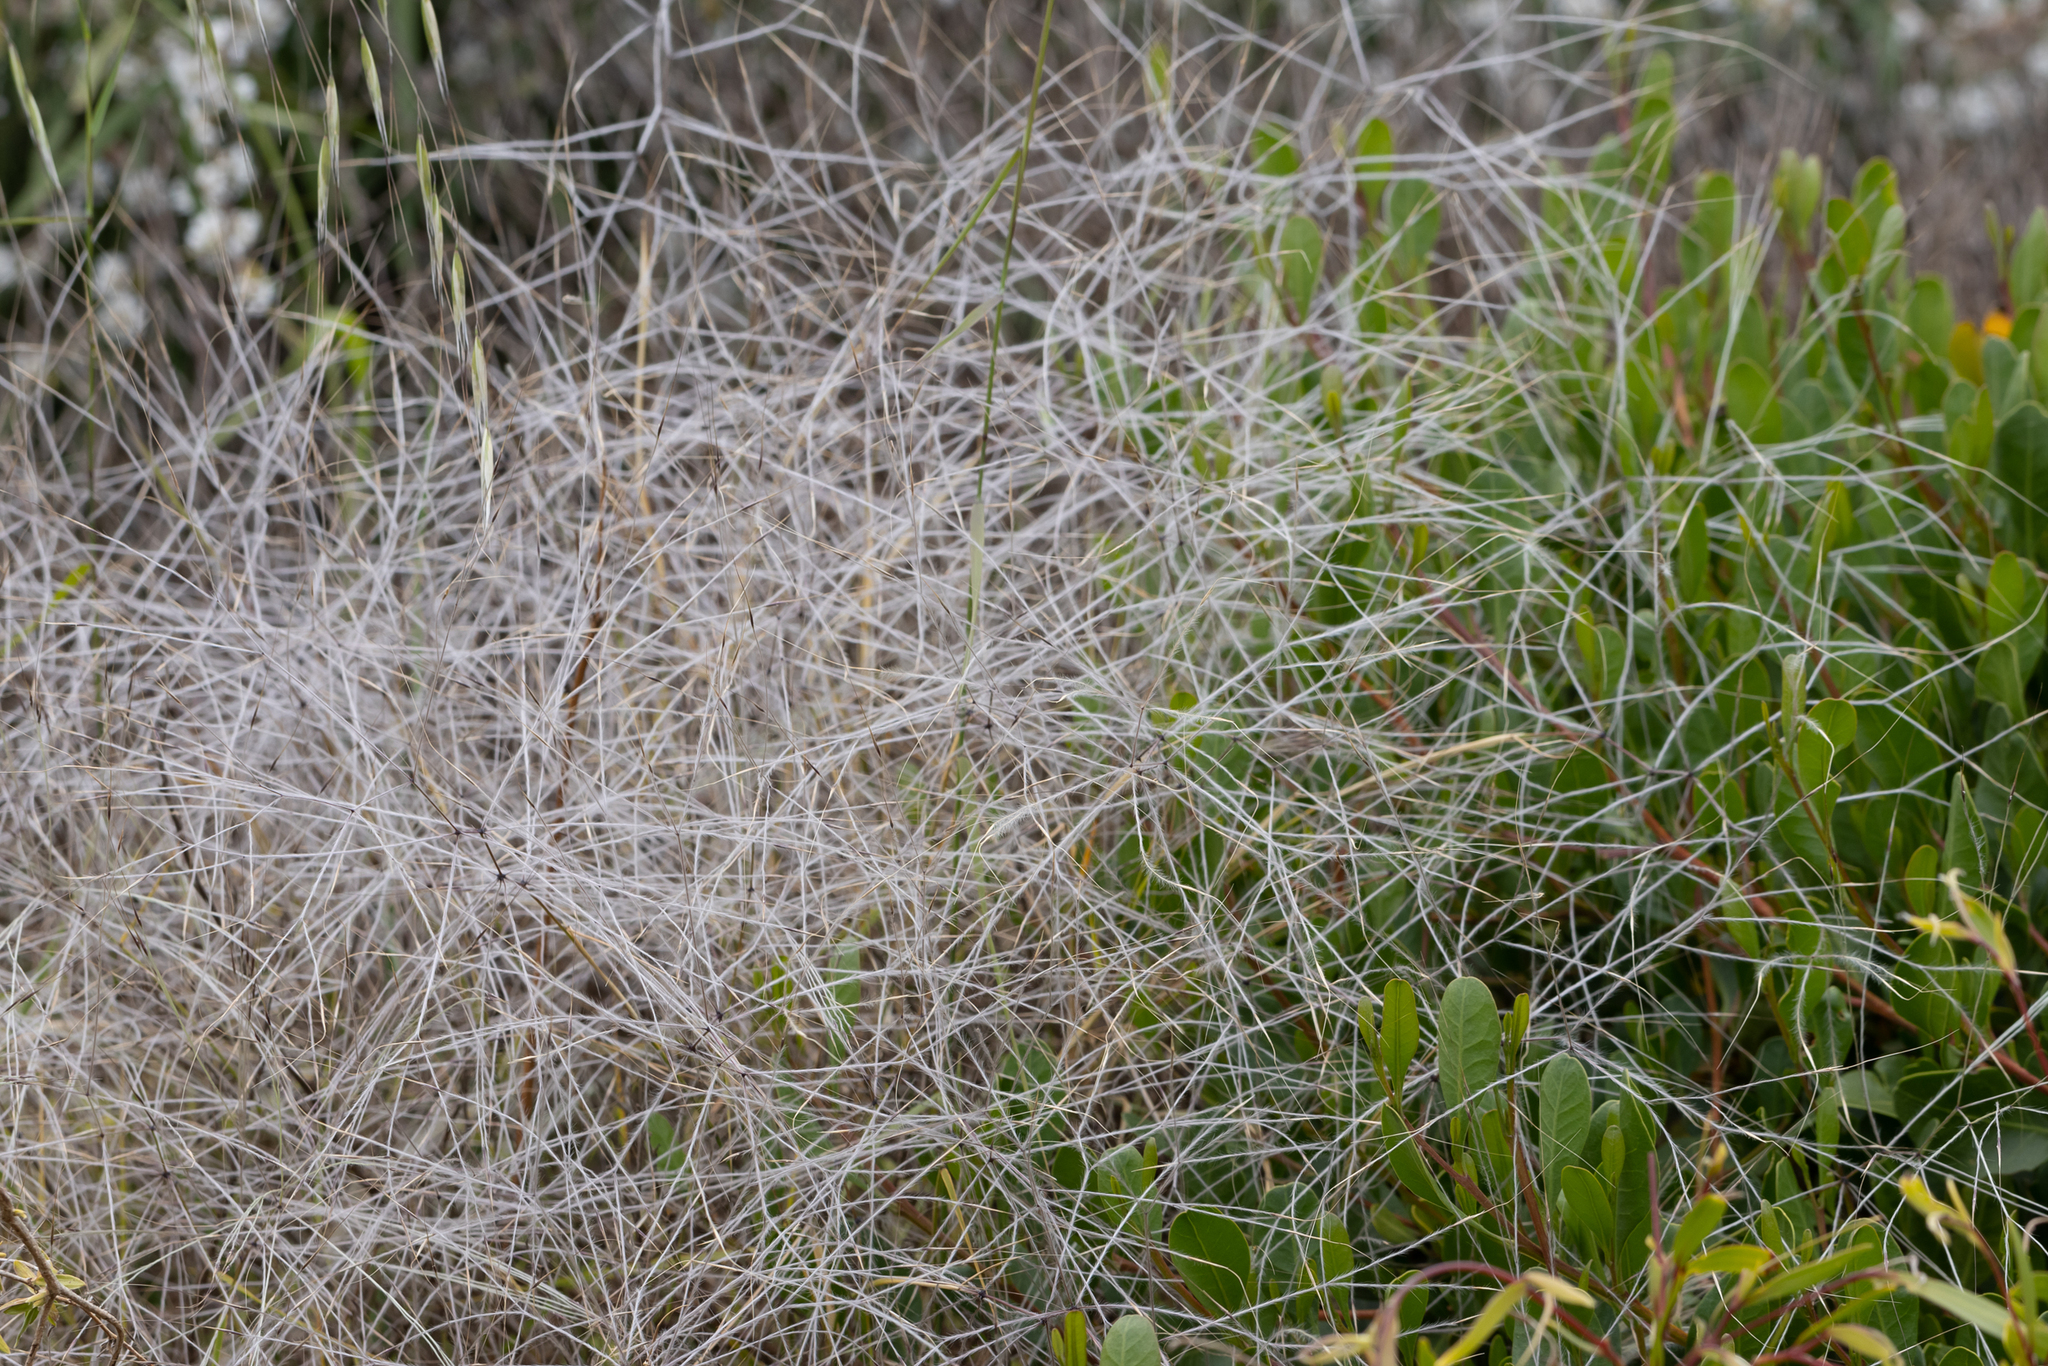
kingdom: Plantae
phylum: Tracheophyta
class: Liliopsida
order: Poales
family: Poaceae
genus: Austrostipa
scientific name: Austrostipa elegantissima
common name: Feather spear grass
